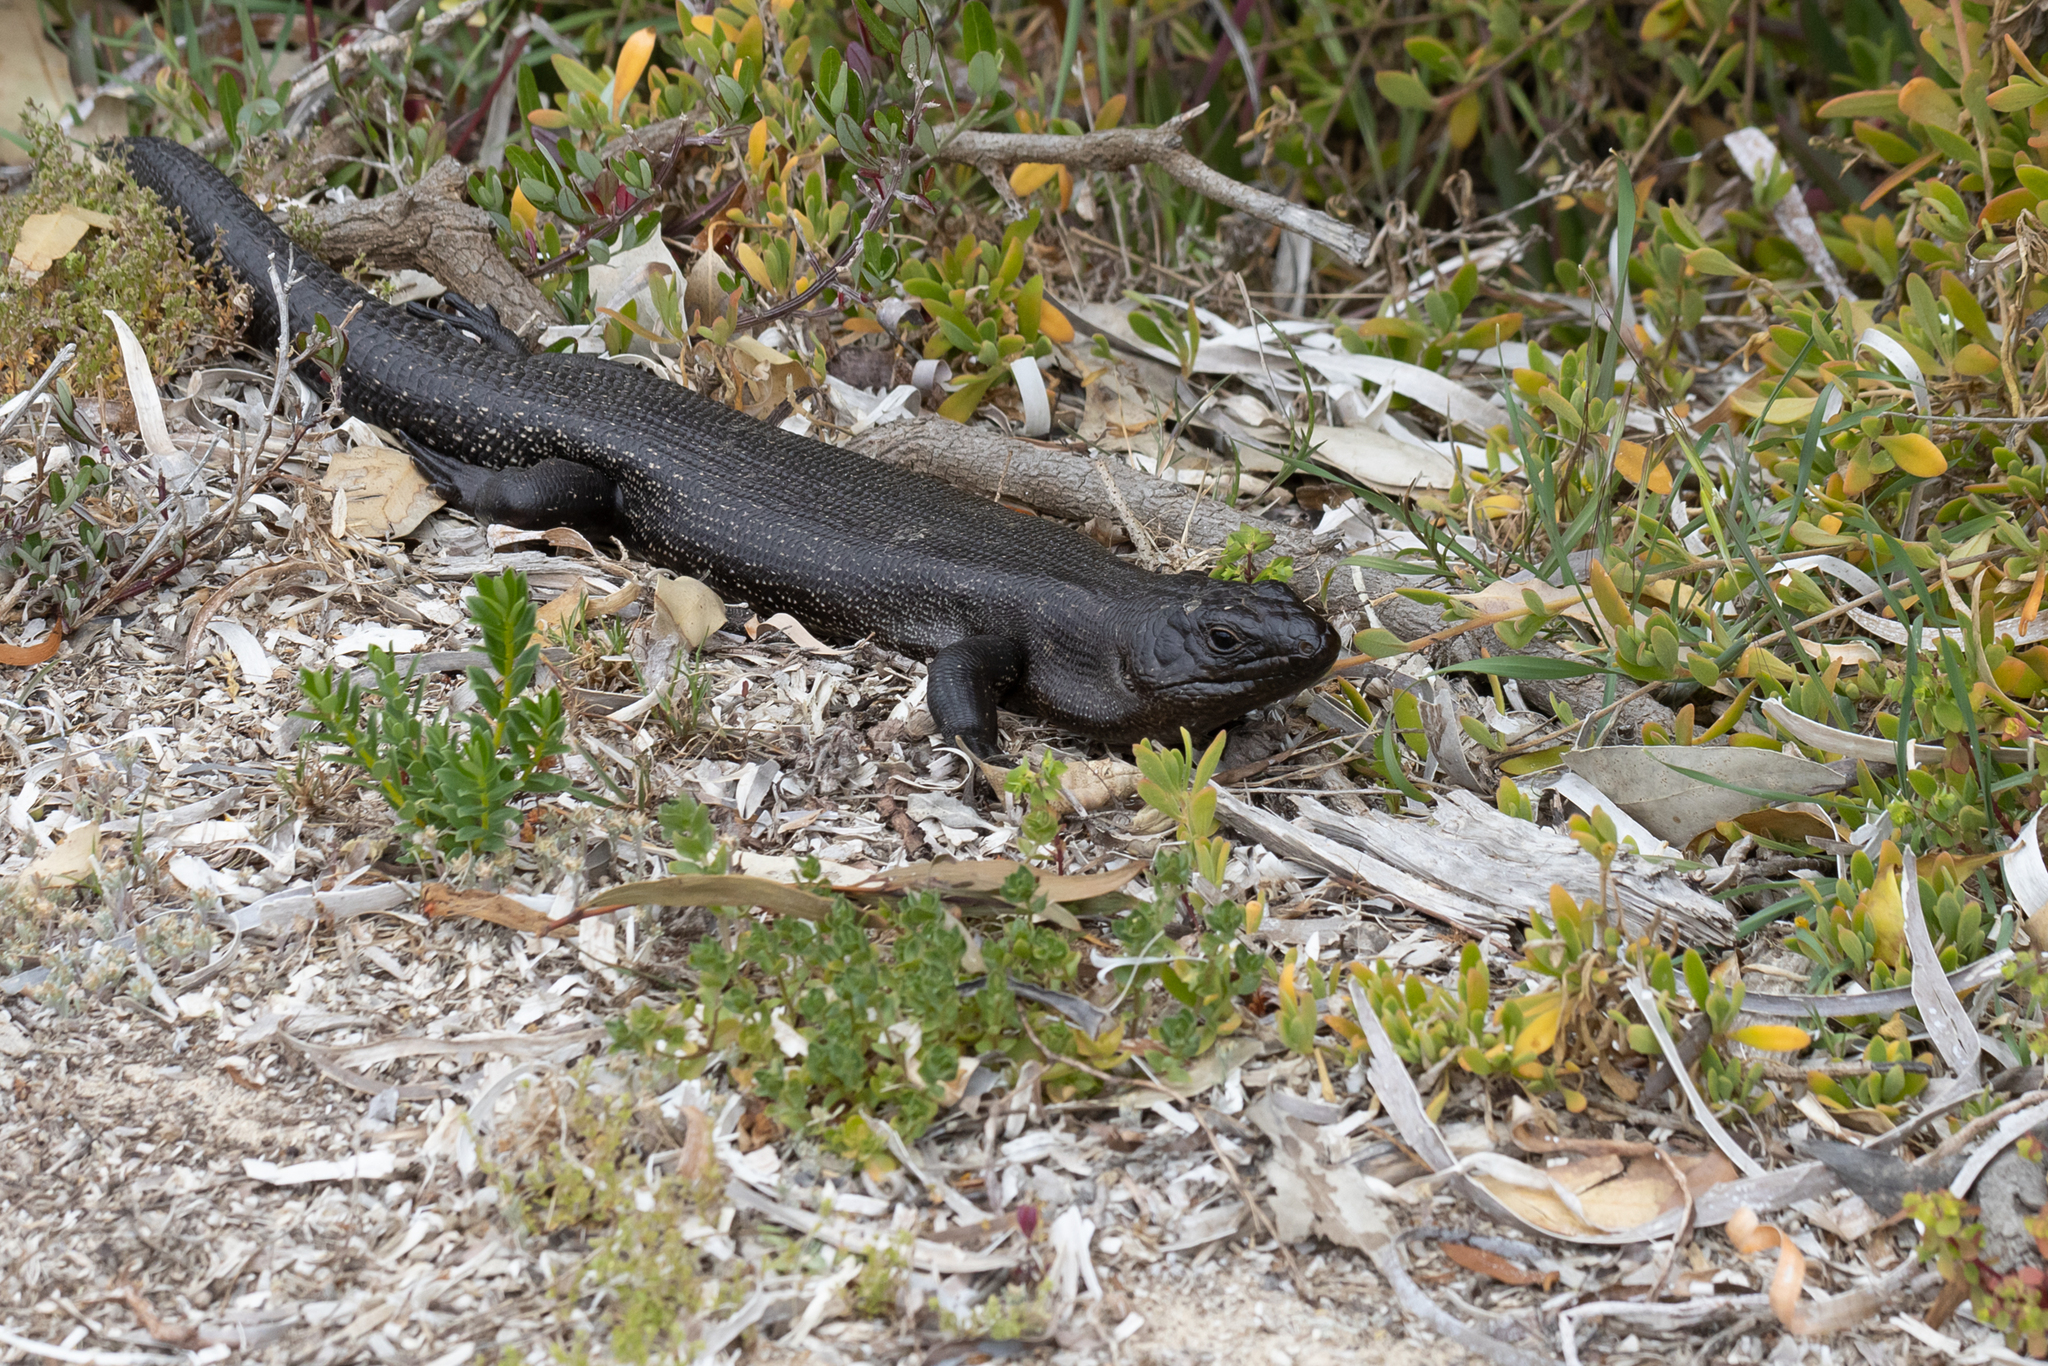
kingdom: Animalia
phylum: Chordata
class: Squamata
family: Scincidae
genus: Egernia
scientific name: Egernia kingii
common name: King's skink
